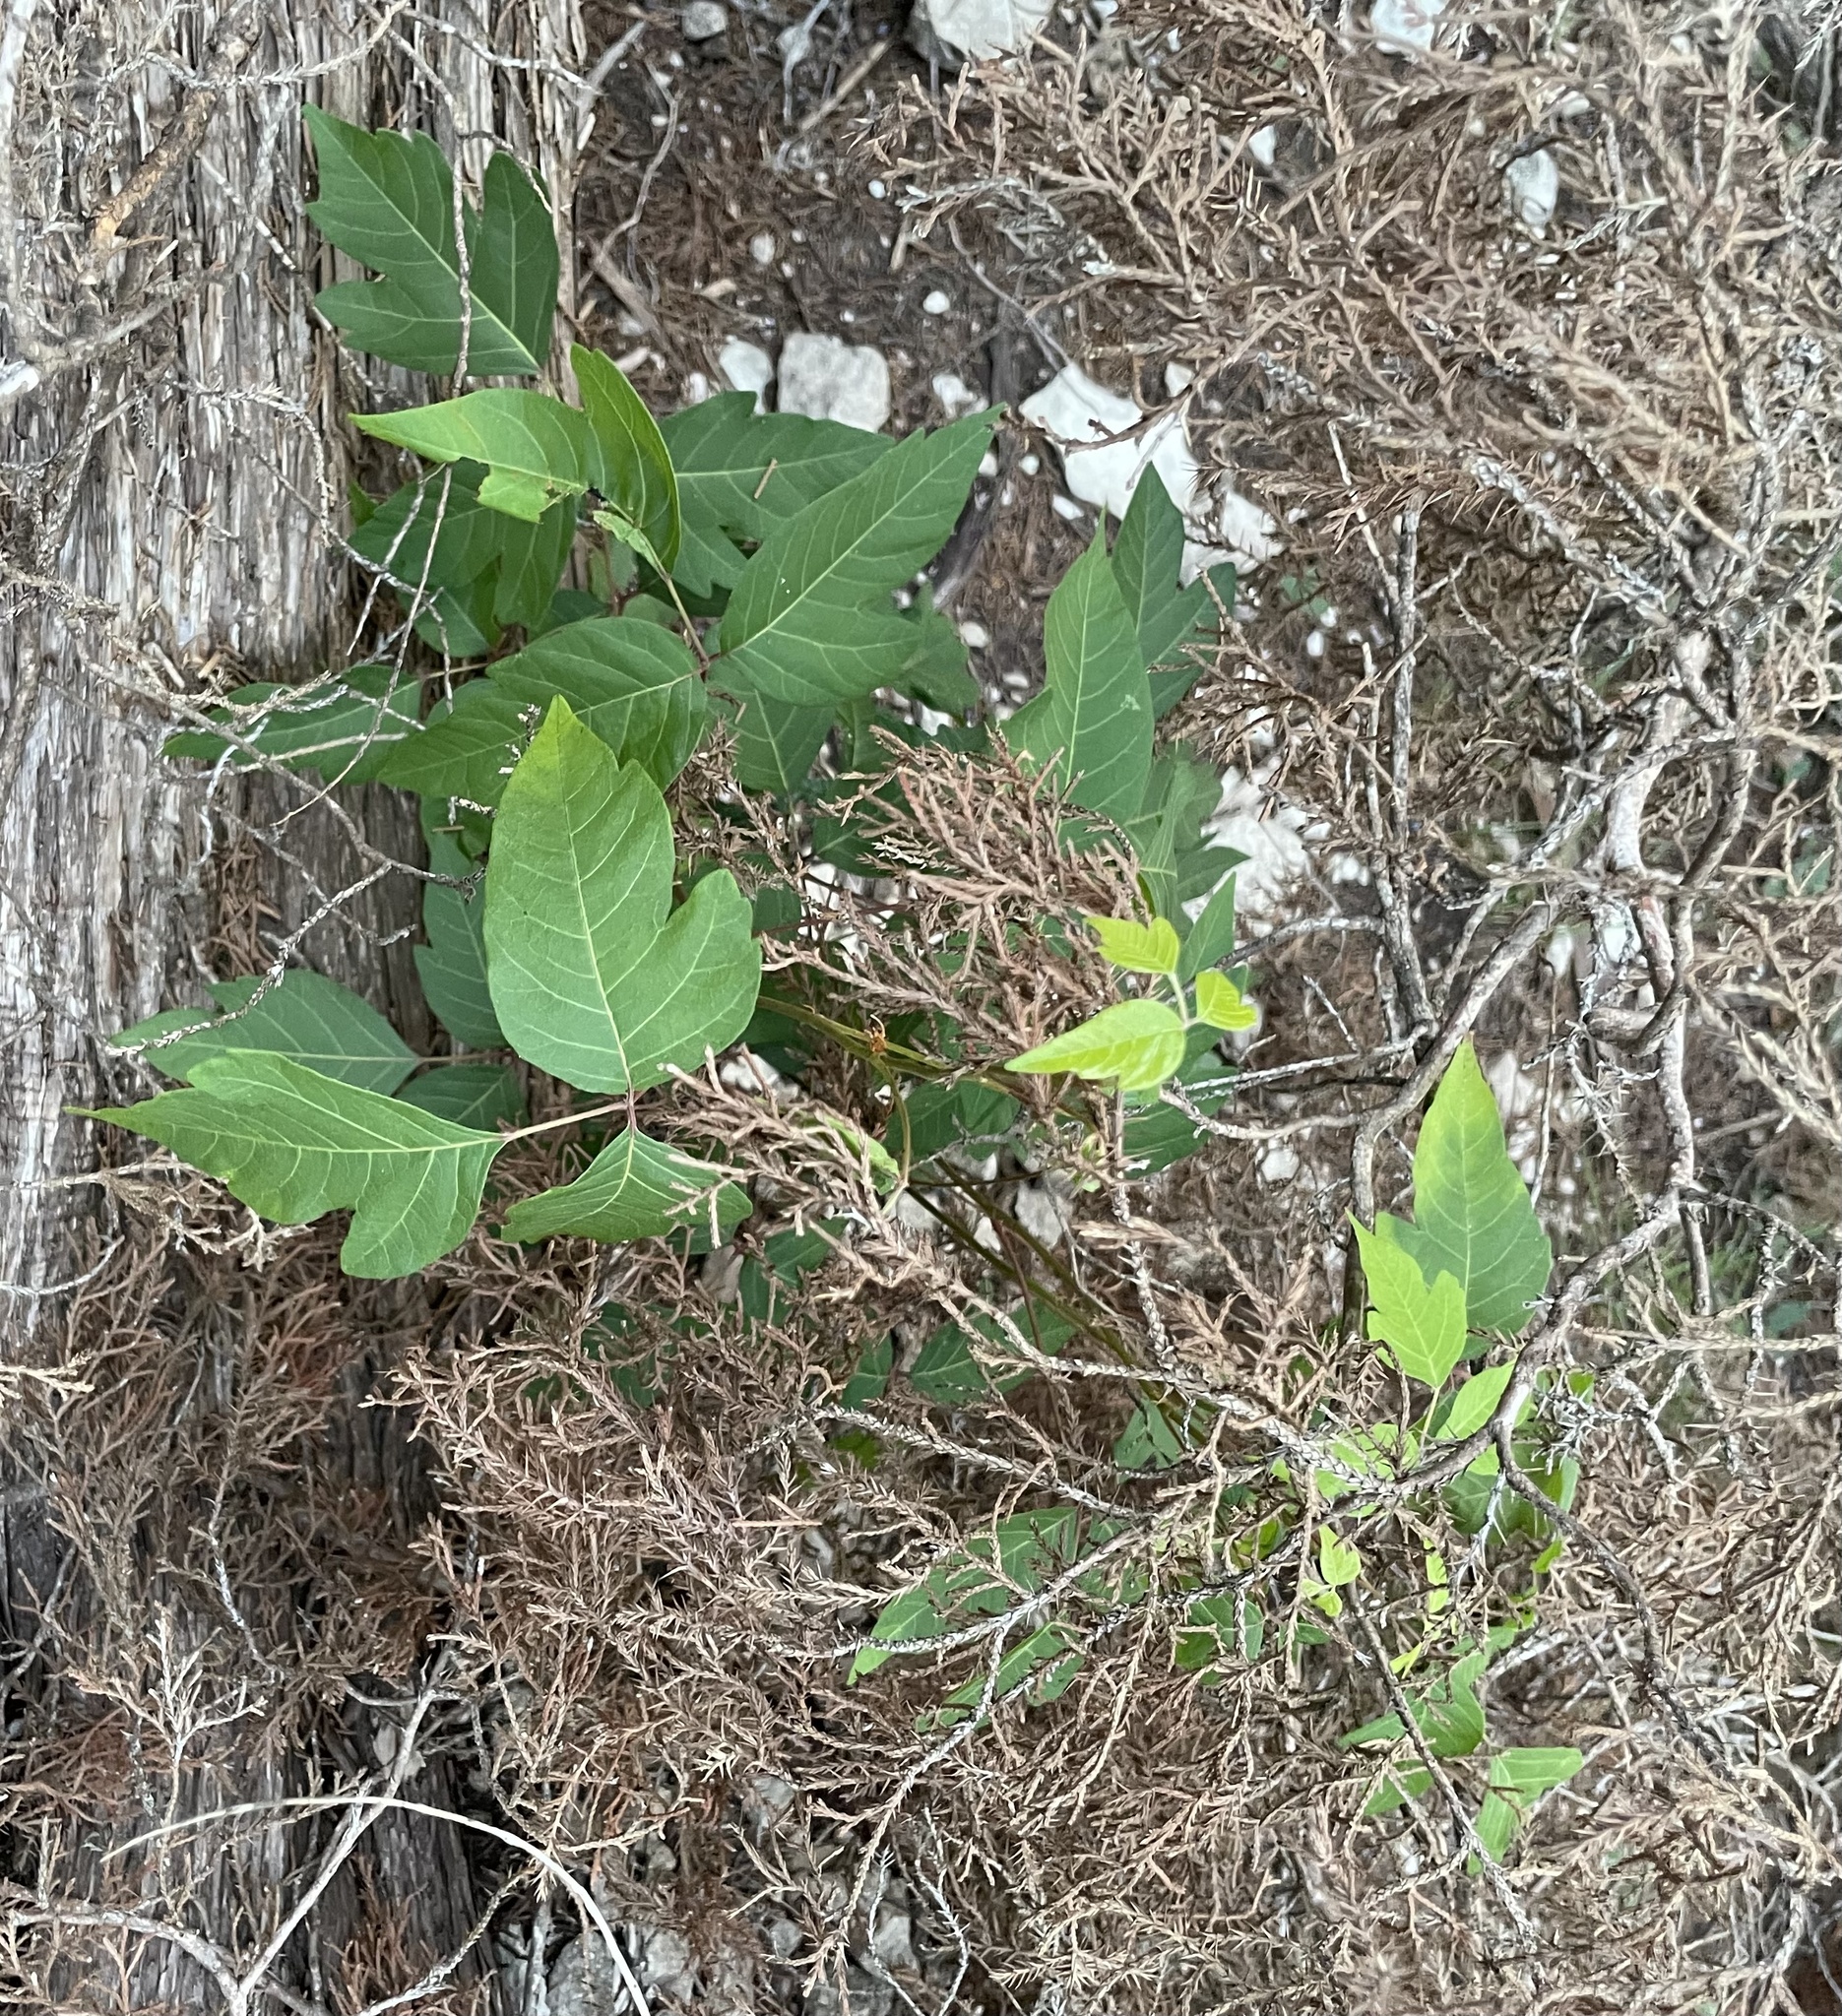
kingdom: Plantae
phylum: Tracheophyta
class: Magnoliopsida
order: Sapindales
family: Anacardiaceae
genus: Toxicodendron
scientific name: Toxicodendron radicans
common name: Poison ivy
